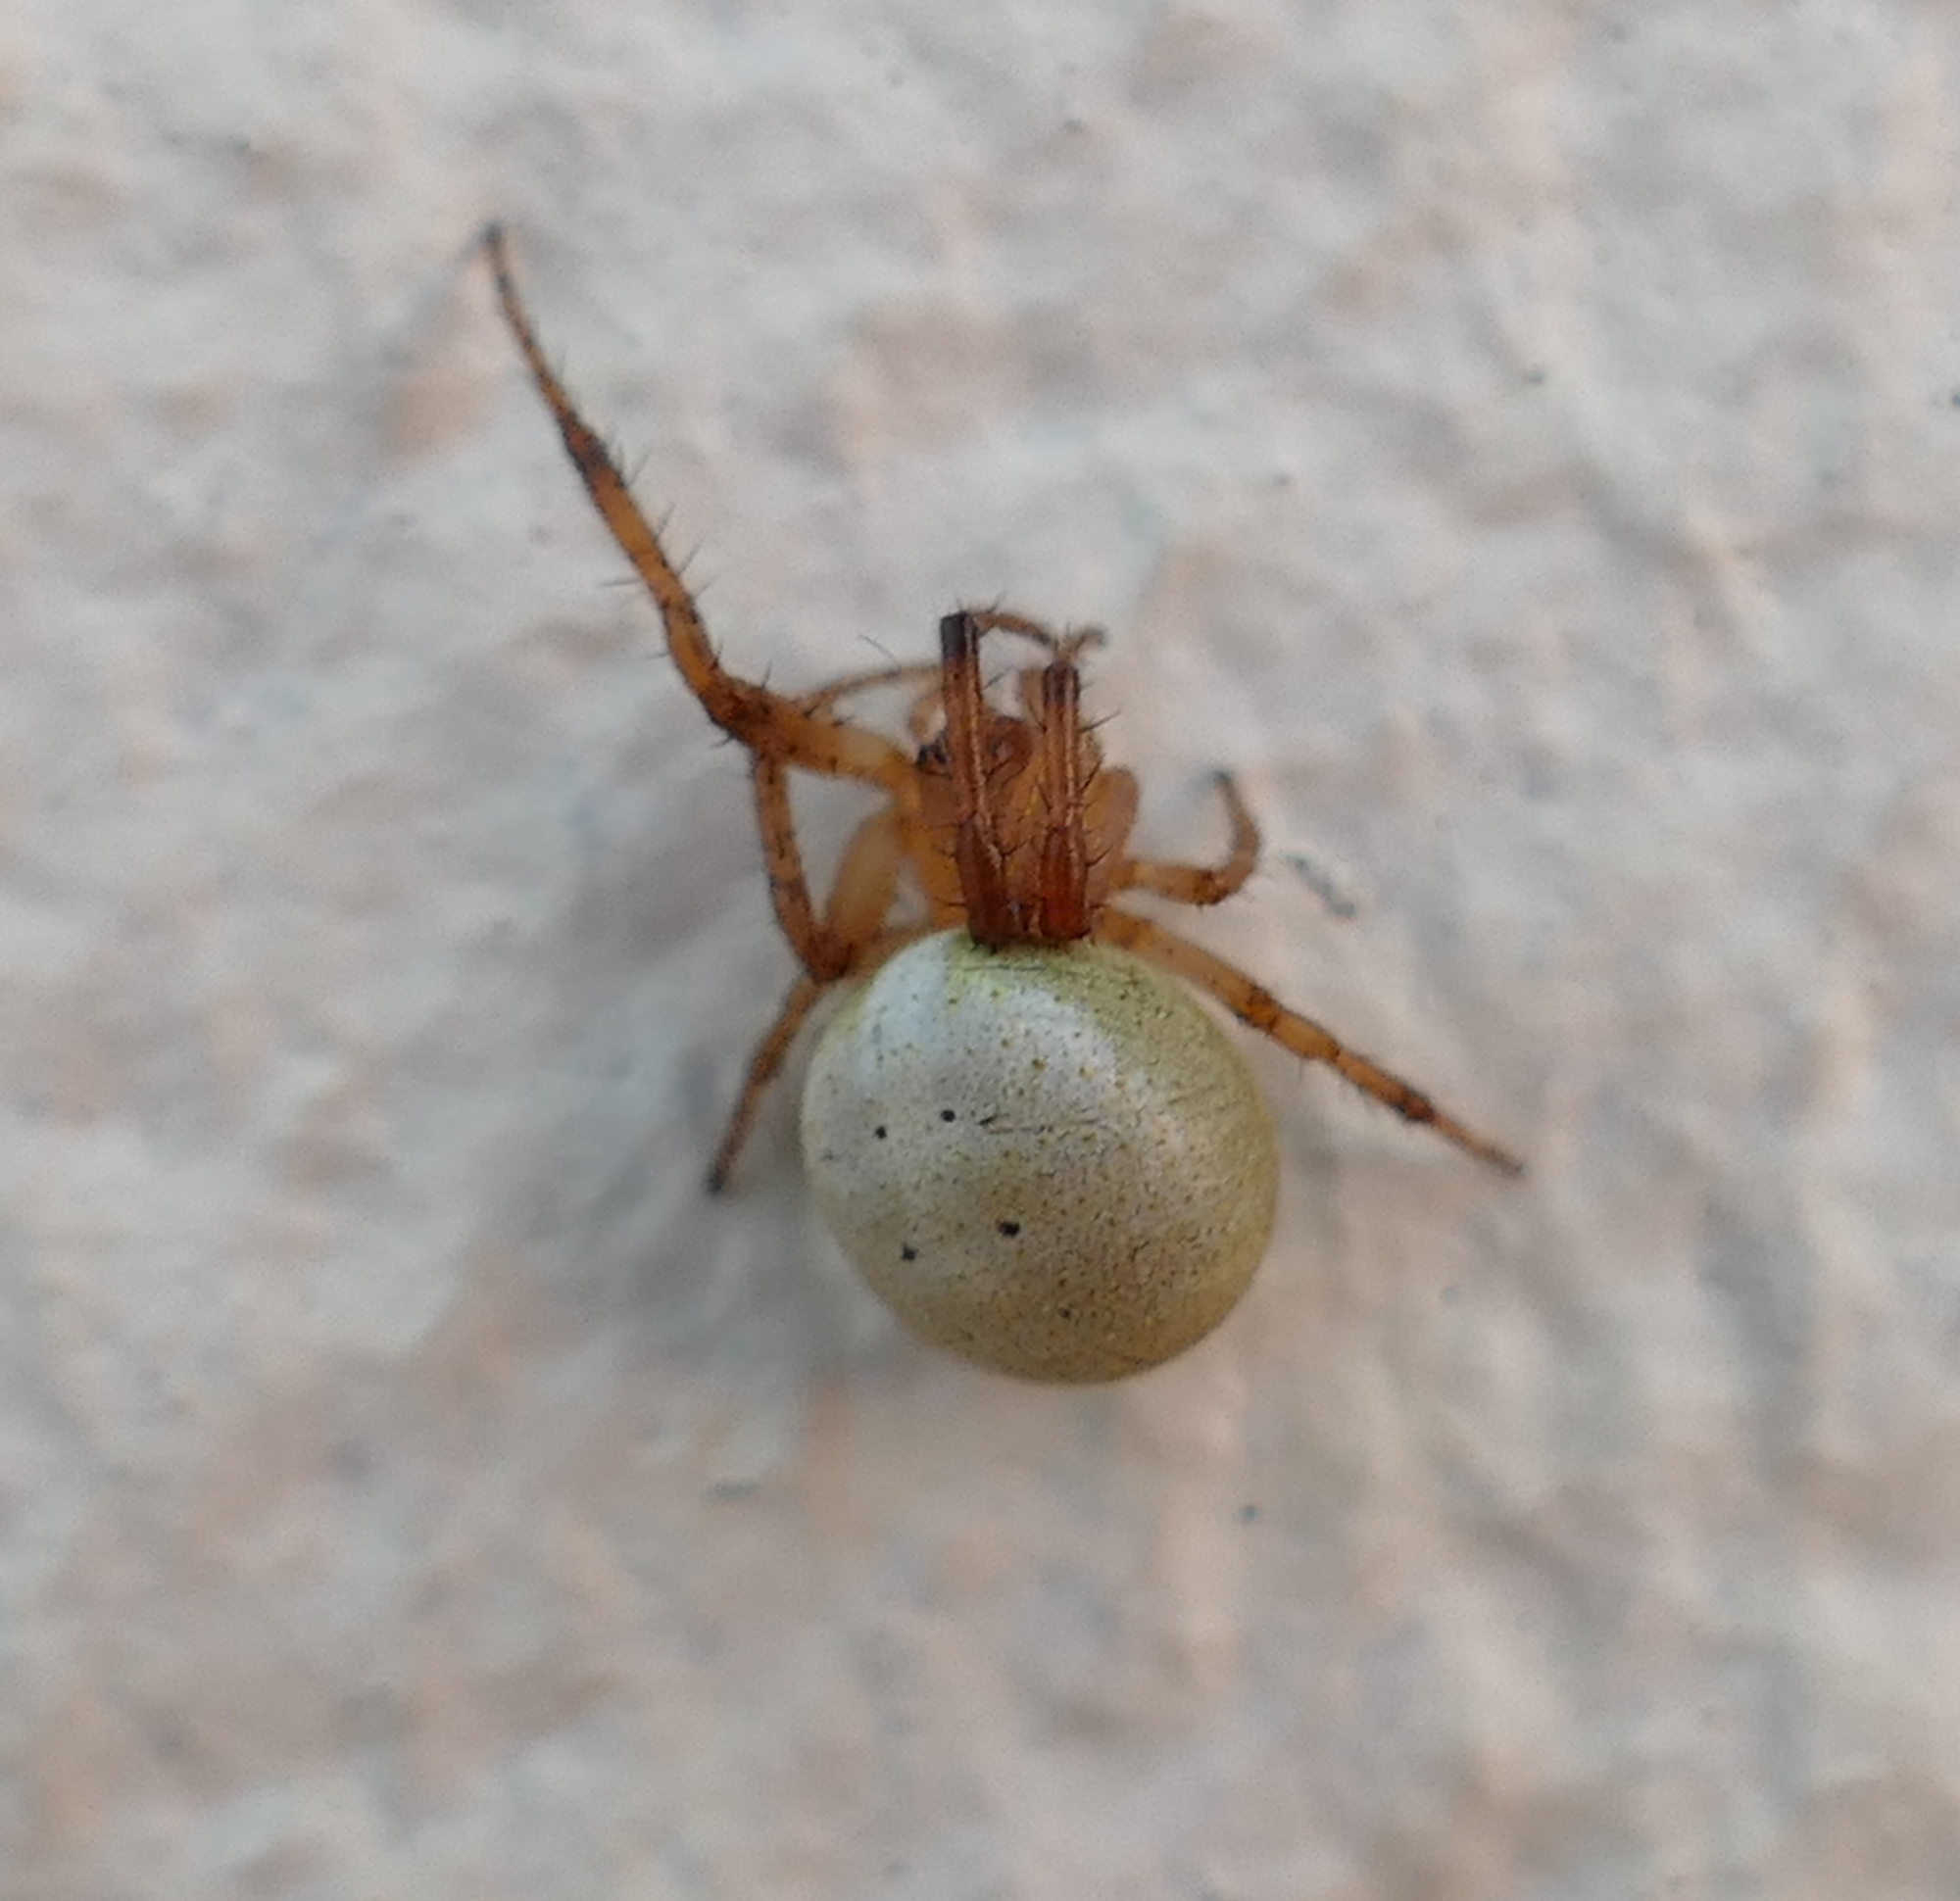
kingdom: Animalia
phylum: Arthropoda
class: Arachnida
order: Araneae
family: Araneidae
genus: Metazygia
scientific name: Metazygia zilloides
